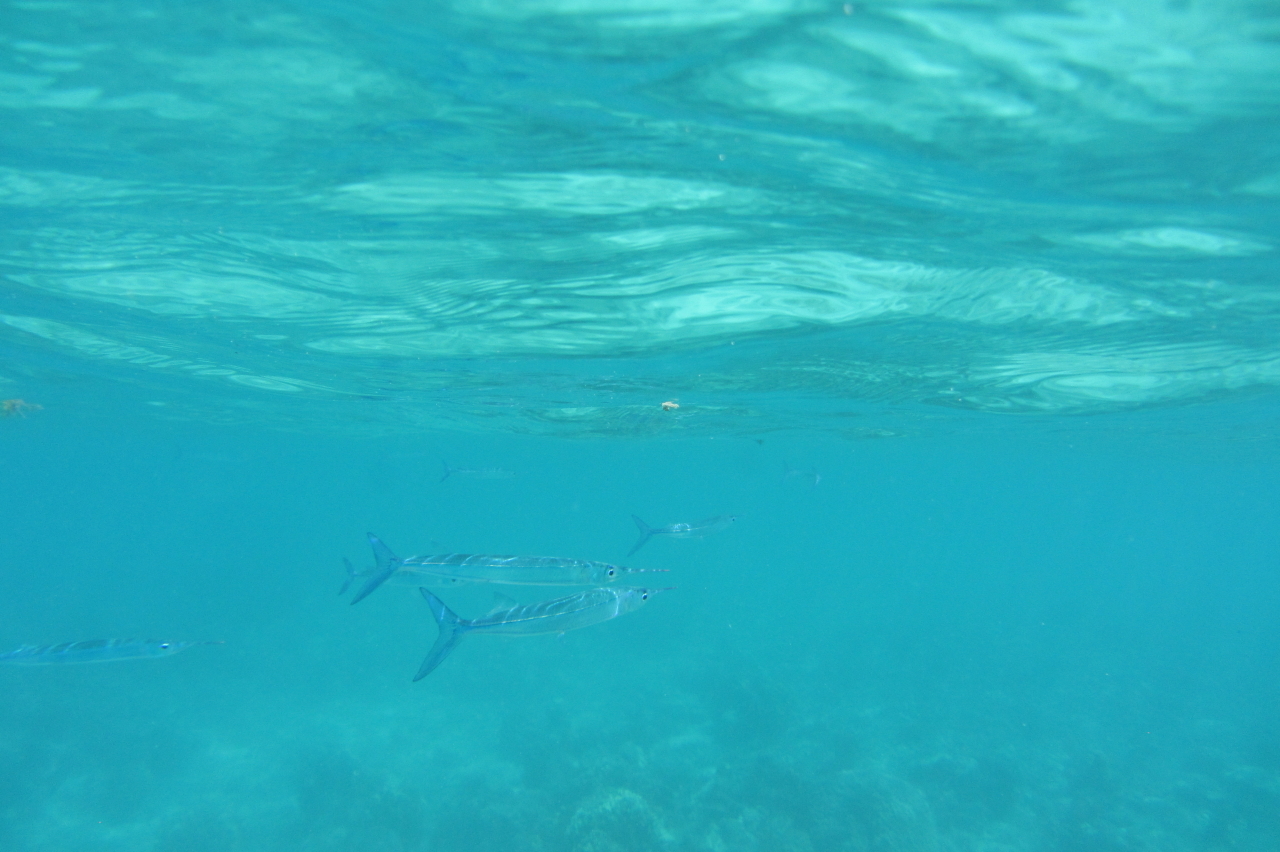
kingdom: Animalia
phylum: Chordata
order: Beloniformes
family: Belonidae
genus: Platybelone
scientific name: Platybelone argalus
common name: Keeltail needlefish
